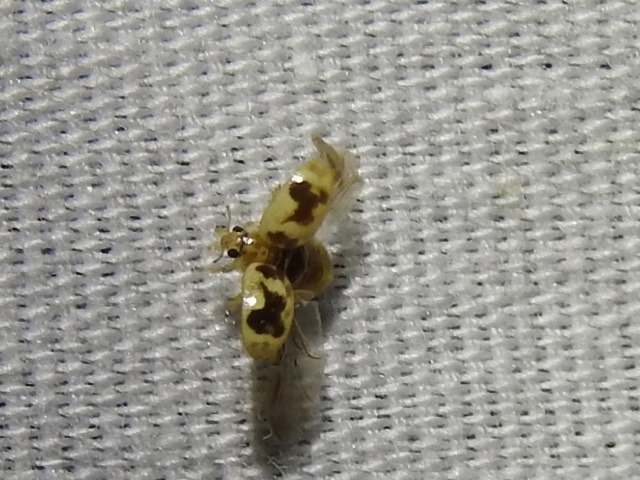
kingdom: Animalia
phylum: Arthropoda
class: Insecta
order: Coleoptera
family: Coccinellidae
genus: Psyllobora
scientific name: Psyllobora renifer
